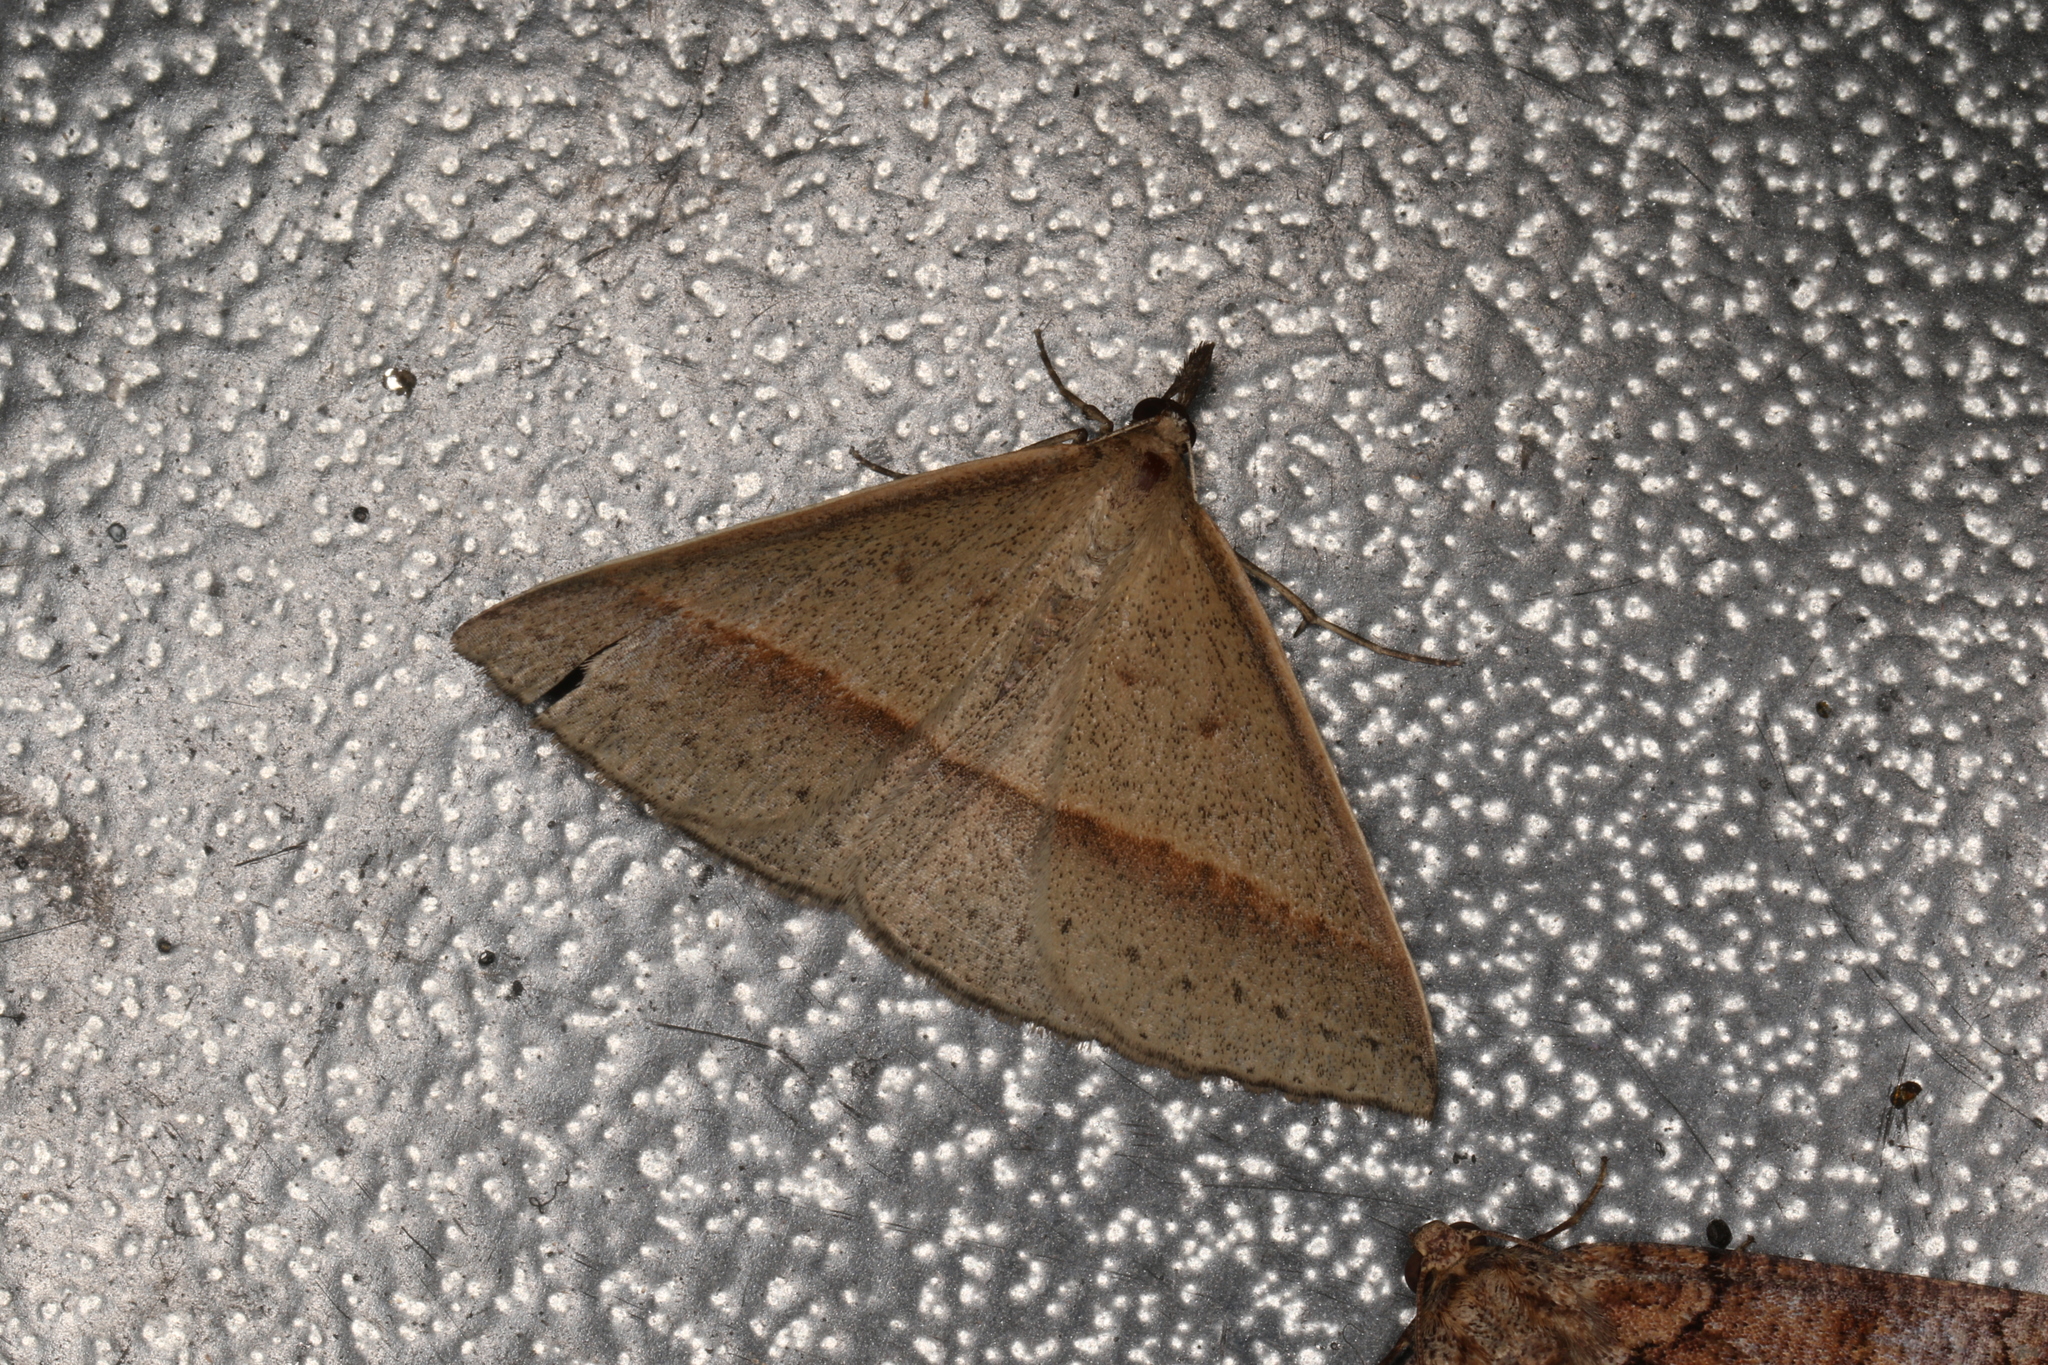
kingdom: Animalia
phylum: Arthropoda
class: Insecta
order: Lepidoptera
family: Geometridae
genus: Epidesmia
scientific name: Epidesmia chilonaria
